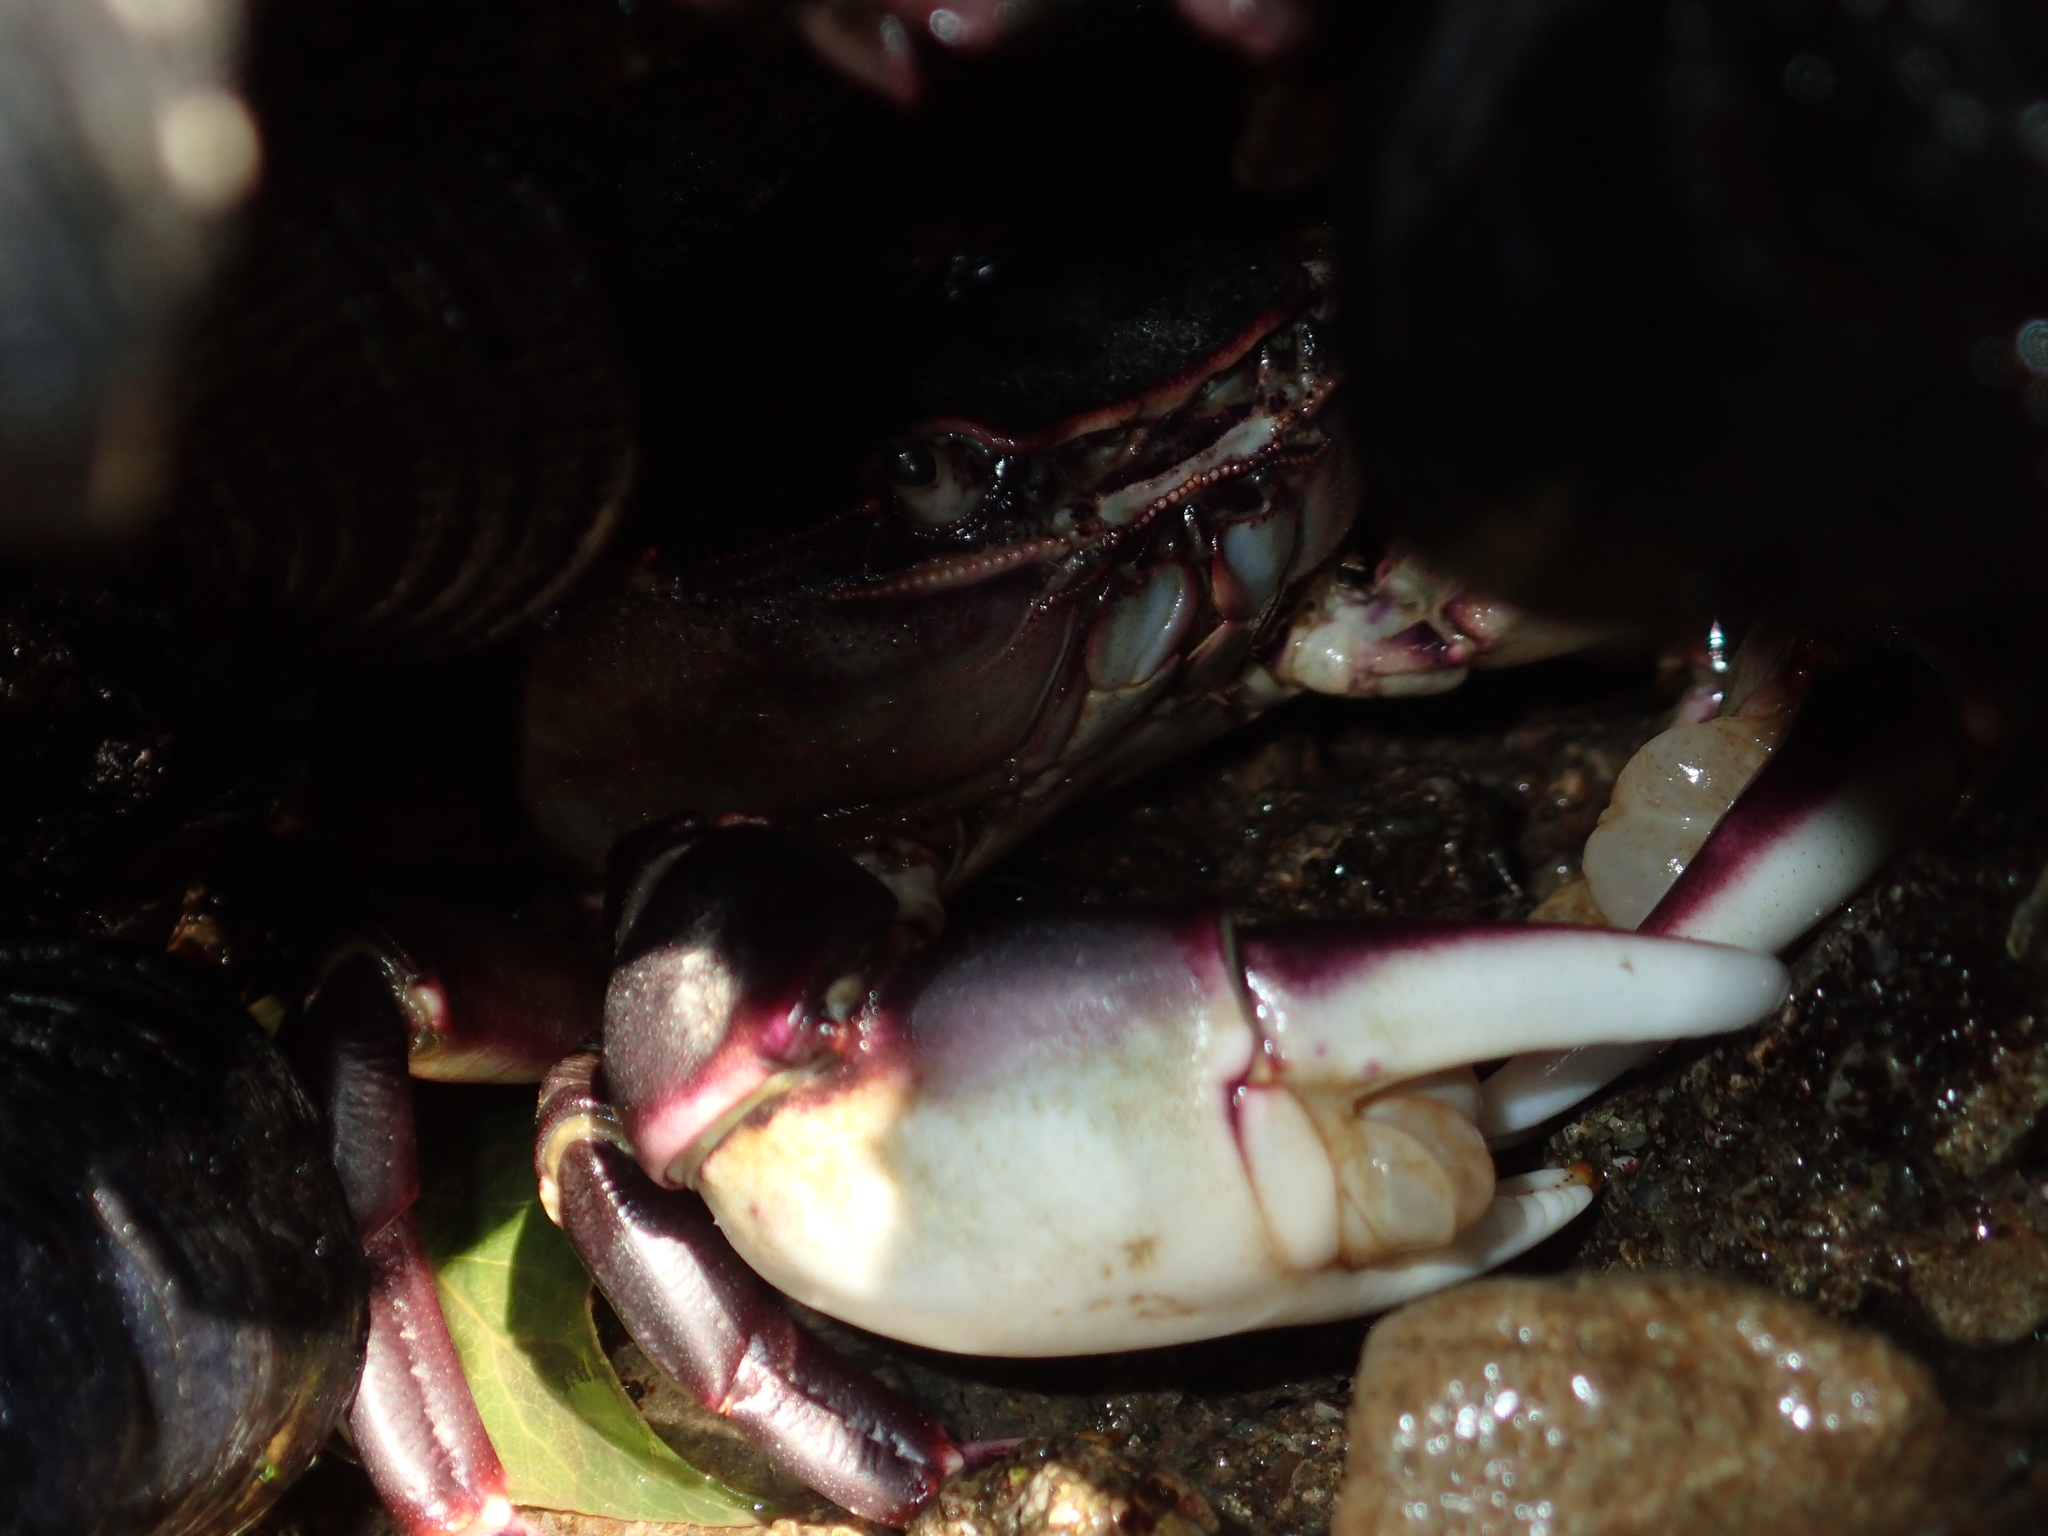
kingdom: Animalia
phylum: Arthropoda
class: Malacostraca
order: Decapoda
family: Varunidae
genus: Hemigrapsus
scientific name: Hemigrapsus sexdentatus
